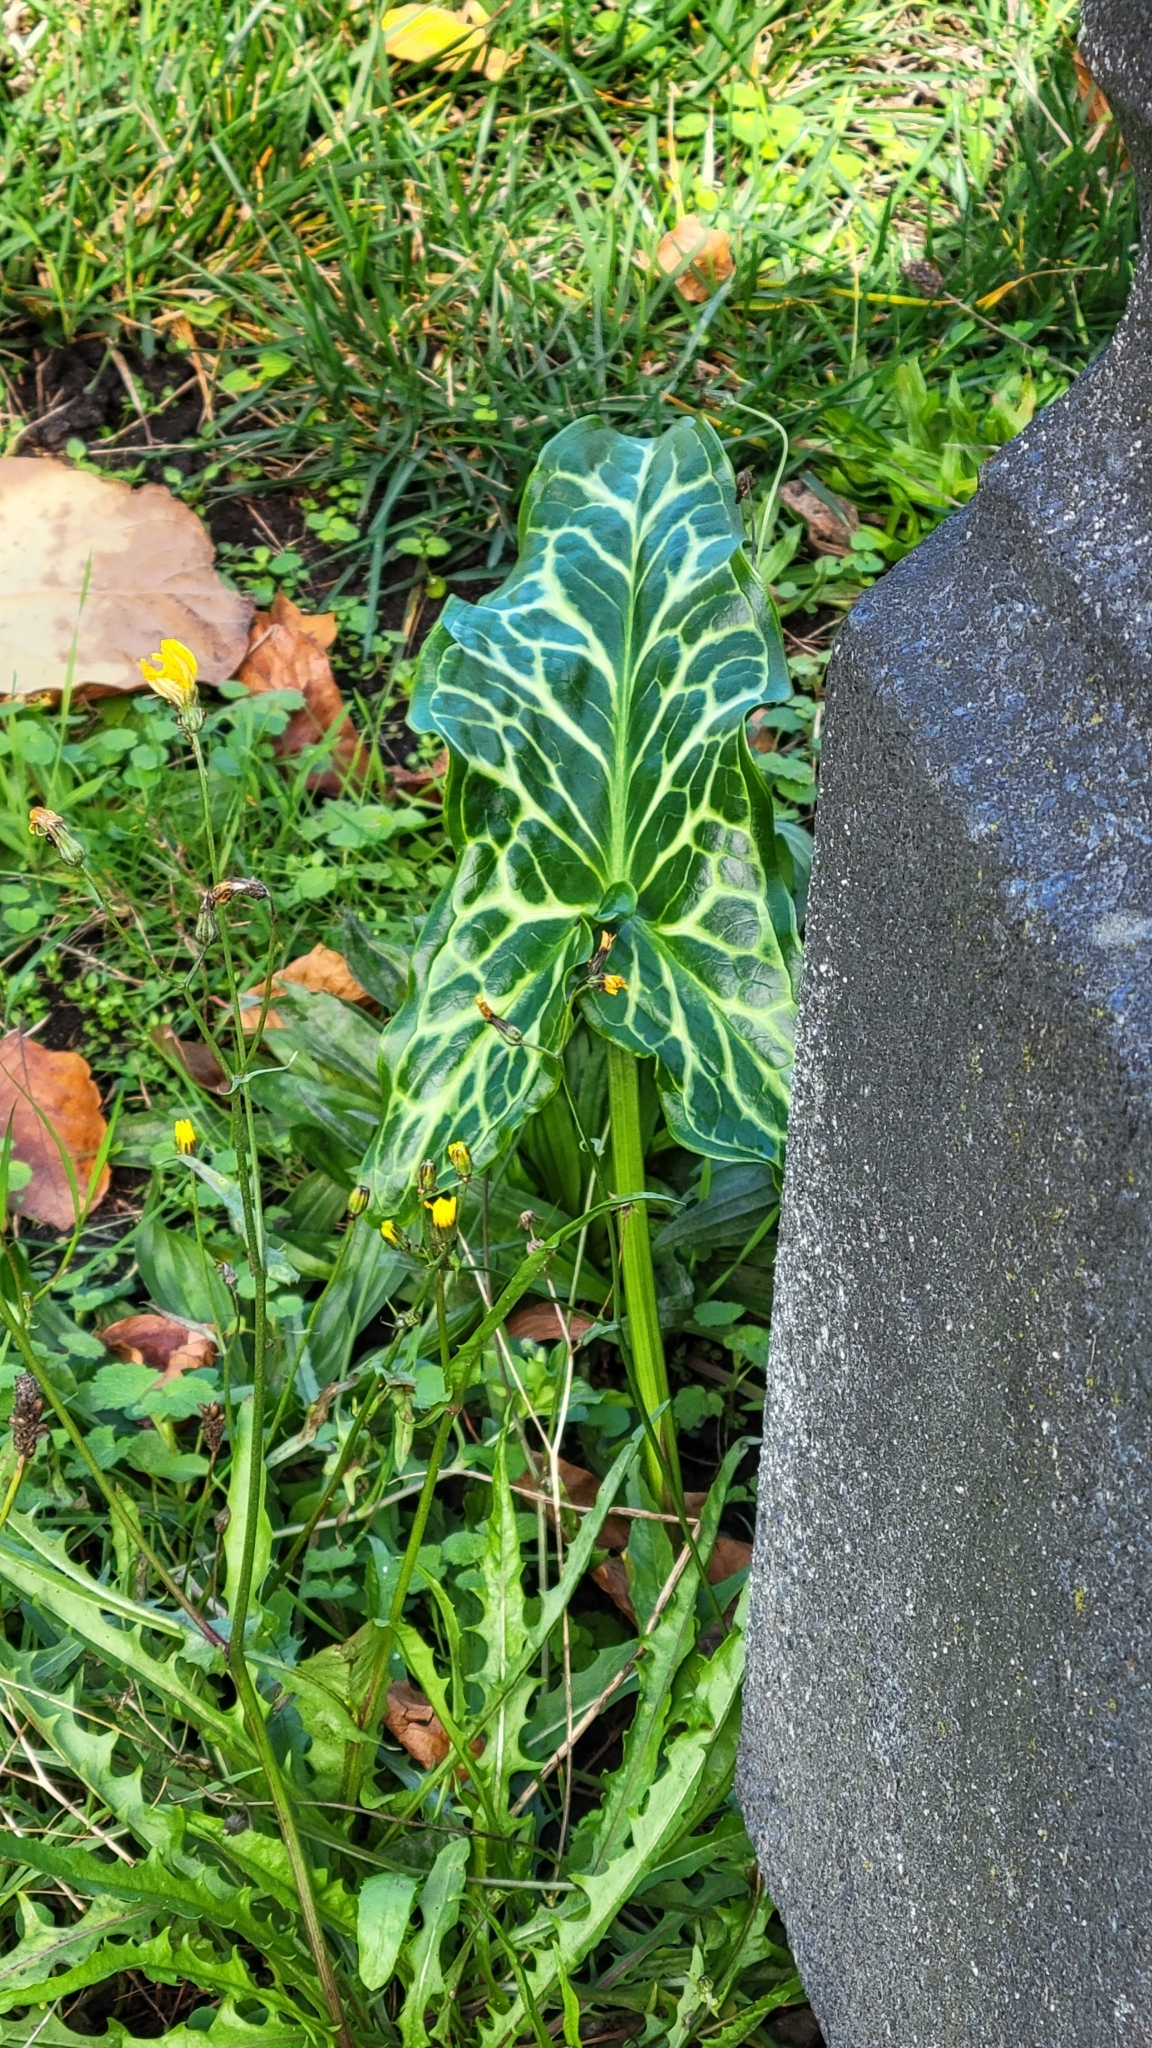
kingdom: Plantae
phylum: Tracheophyta
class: Liliopsida
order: Alismatales
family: Araceae
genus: Arum
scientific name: Arum italicum
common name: Italian lords-and-ladies
